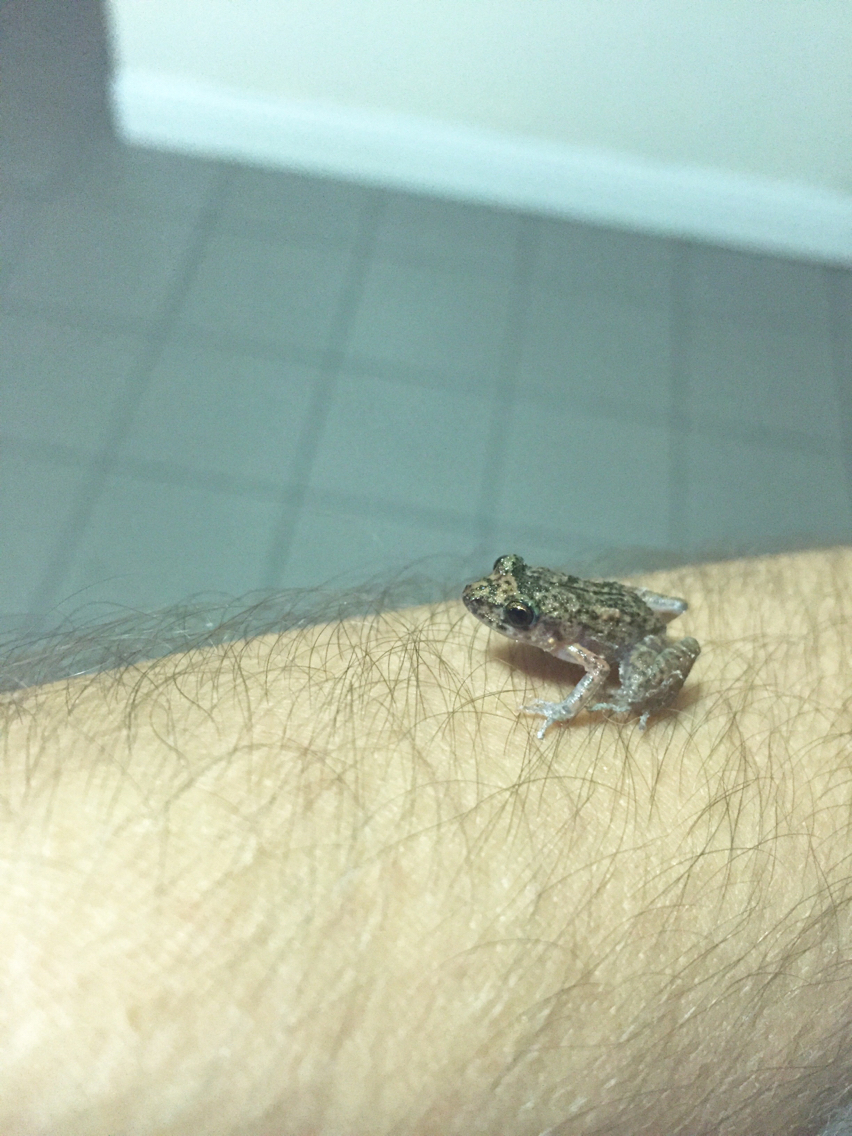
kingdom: Animalia
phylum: Chordata
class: Amphibia
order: Anura
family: Eleutherodactylidae
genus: Eleutherodactylus
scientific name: Eleutherodactylus planirostris
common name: Greenhouse frog
